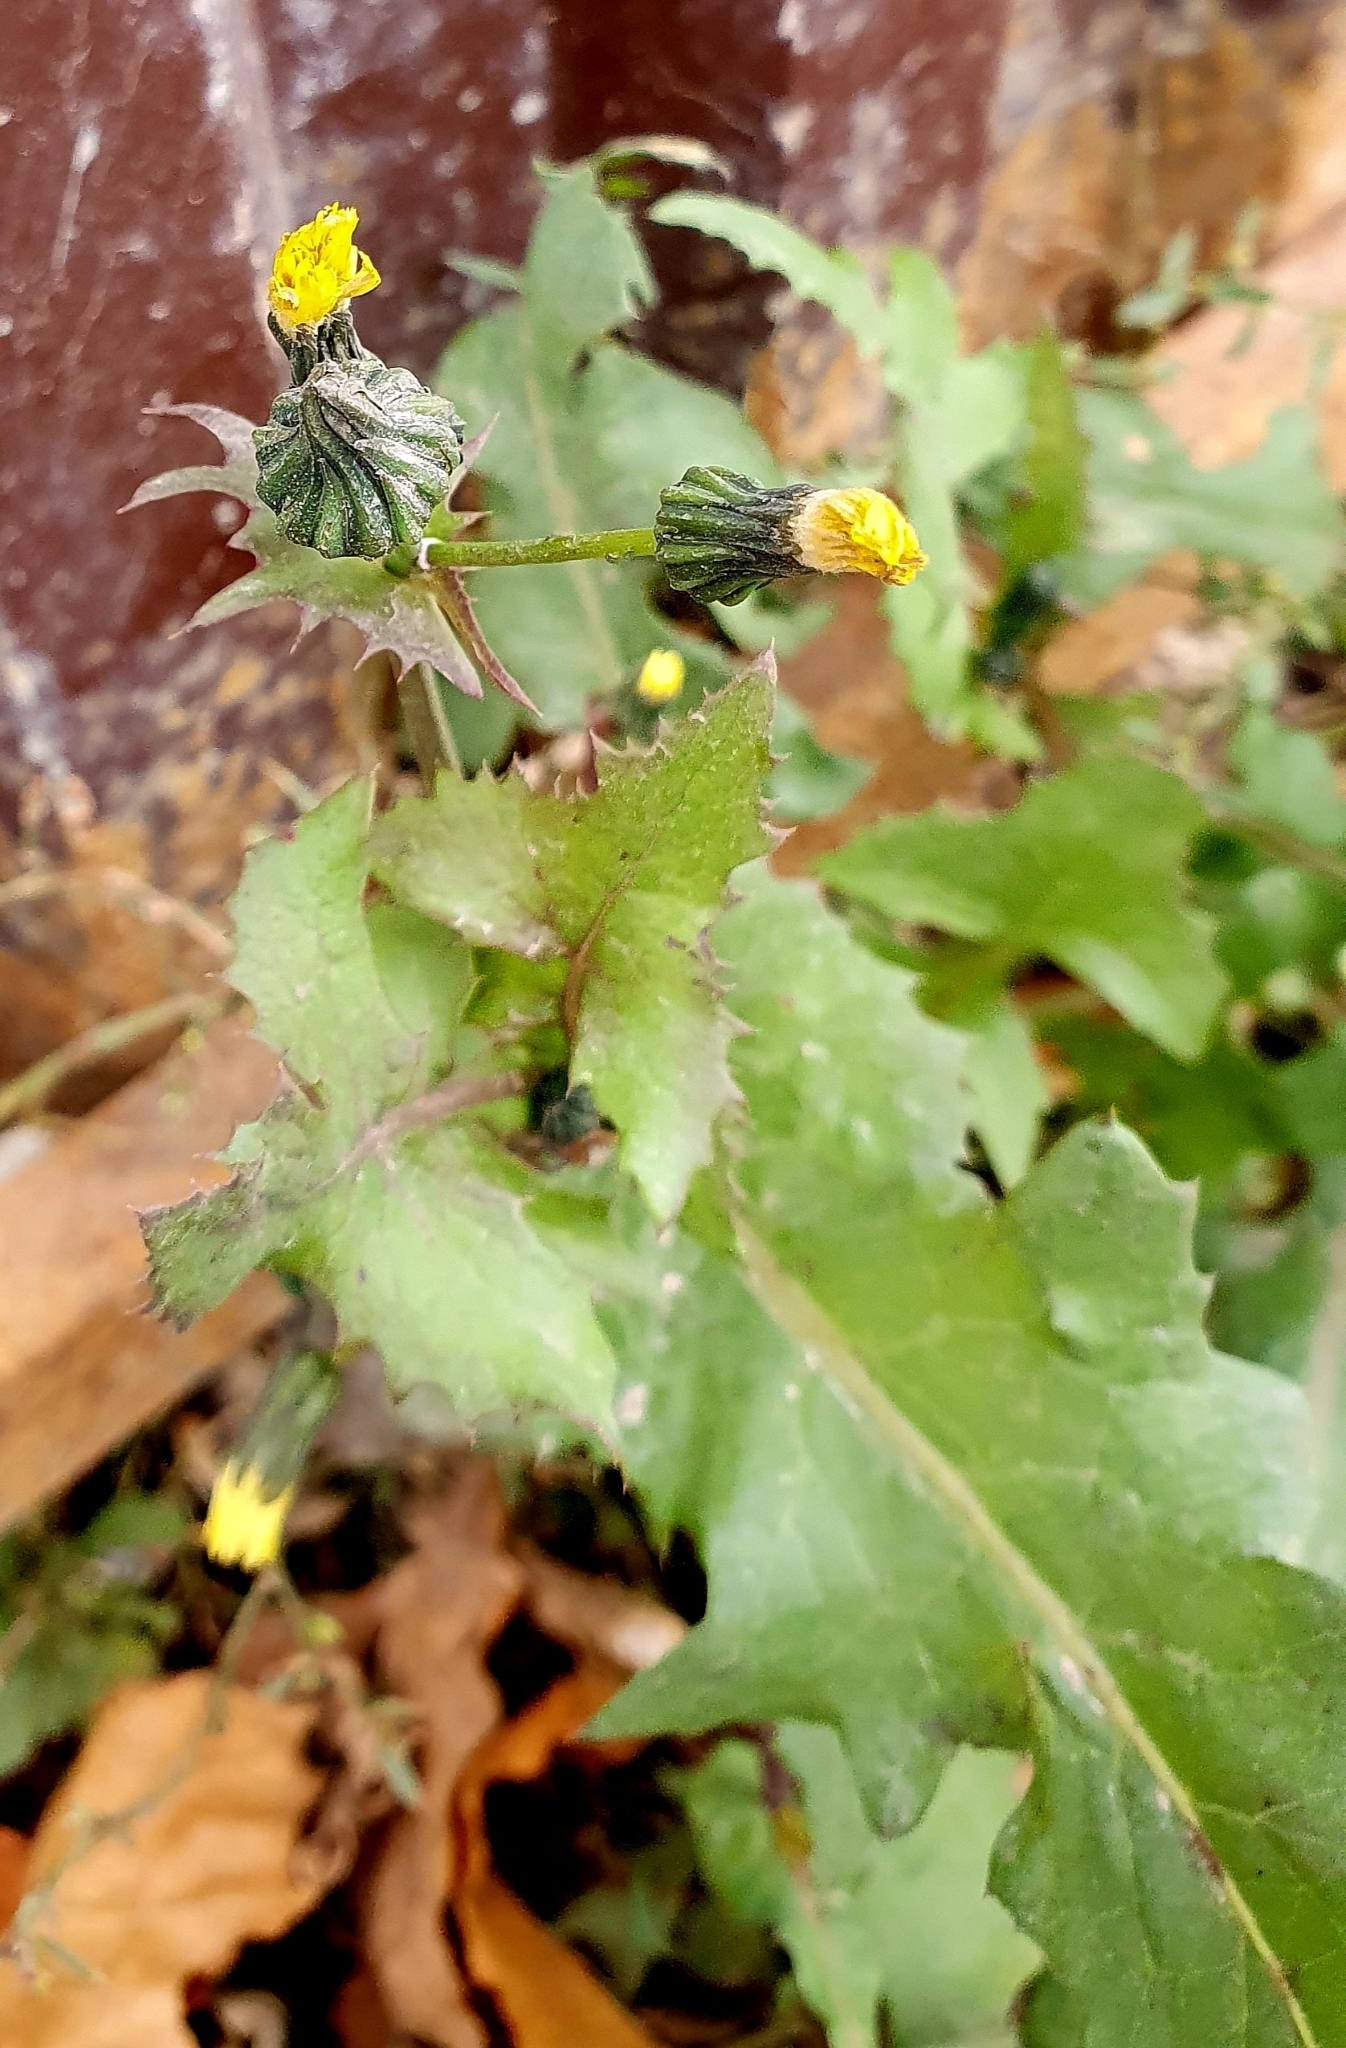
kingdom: Plantae
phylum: Tracheophyta
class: Magnoliopsida
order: Asterales
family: Asteraceae
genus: Sonchus
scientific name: Sonchus oleraceus
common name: Common sowthistle
